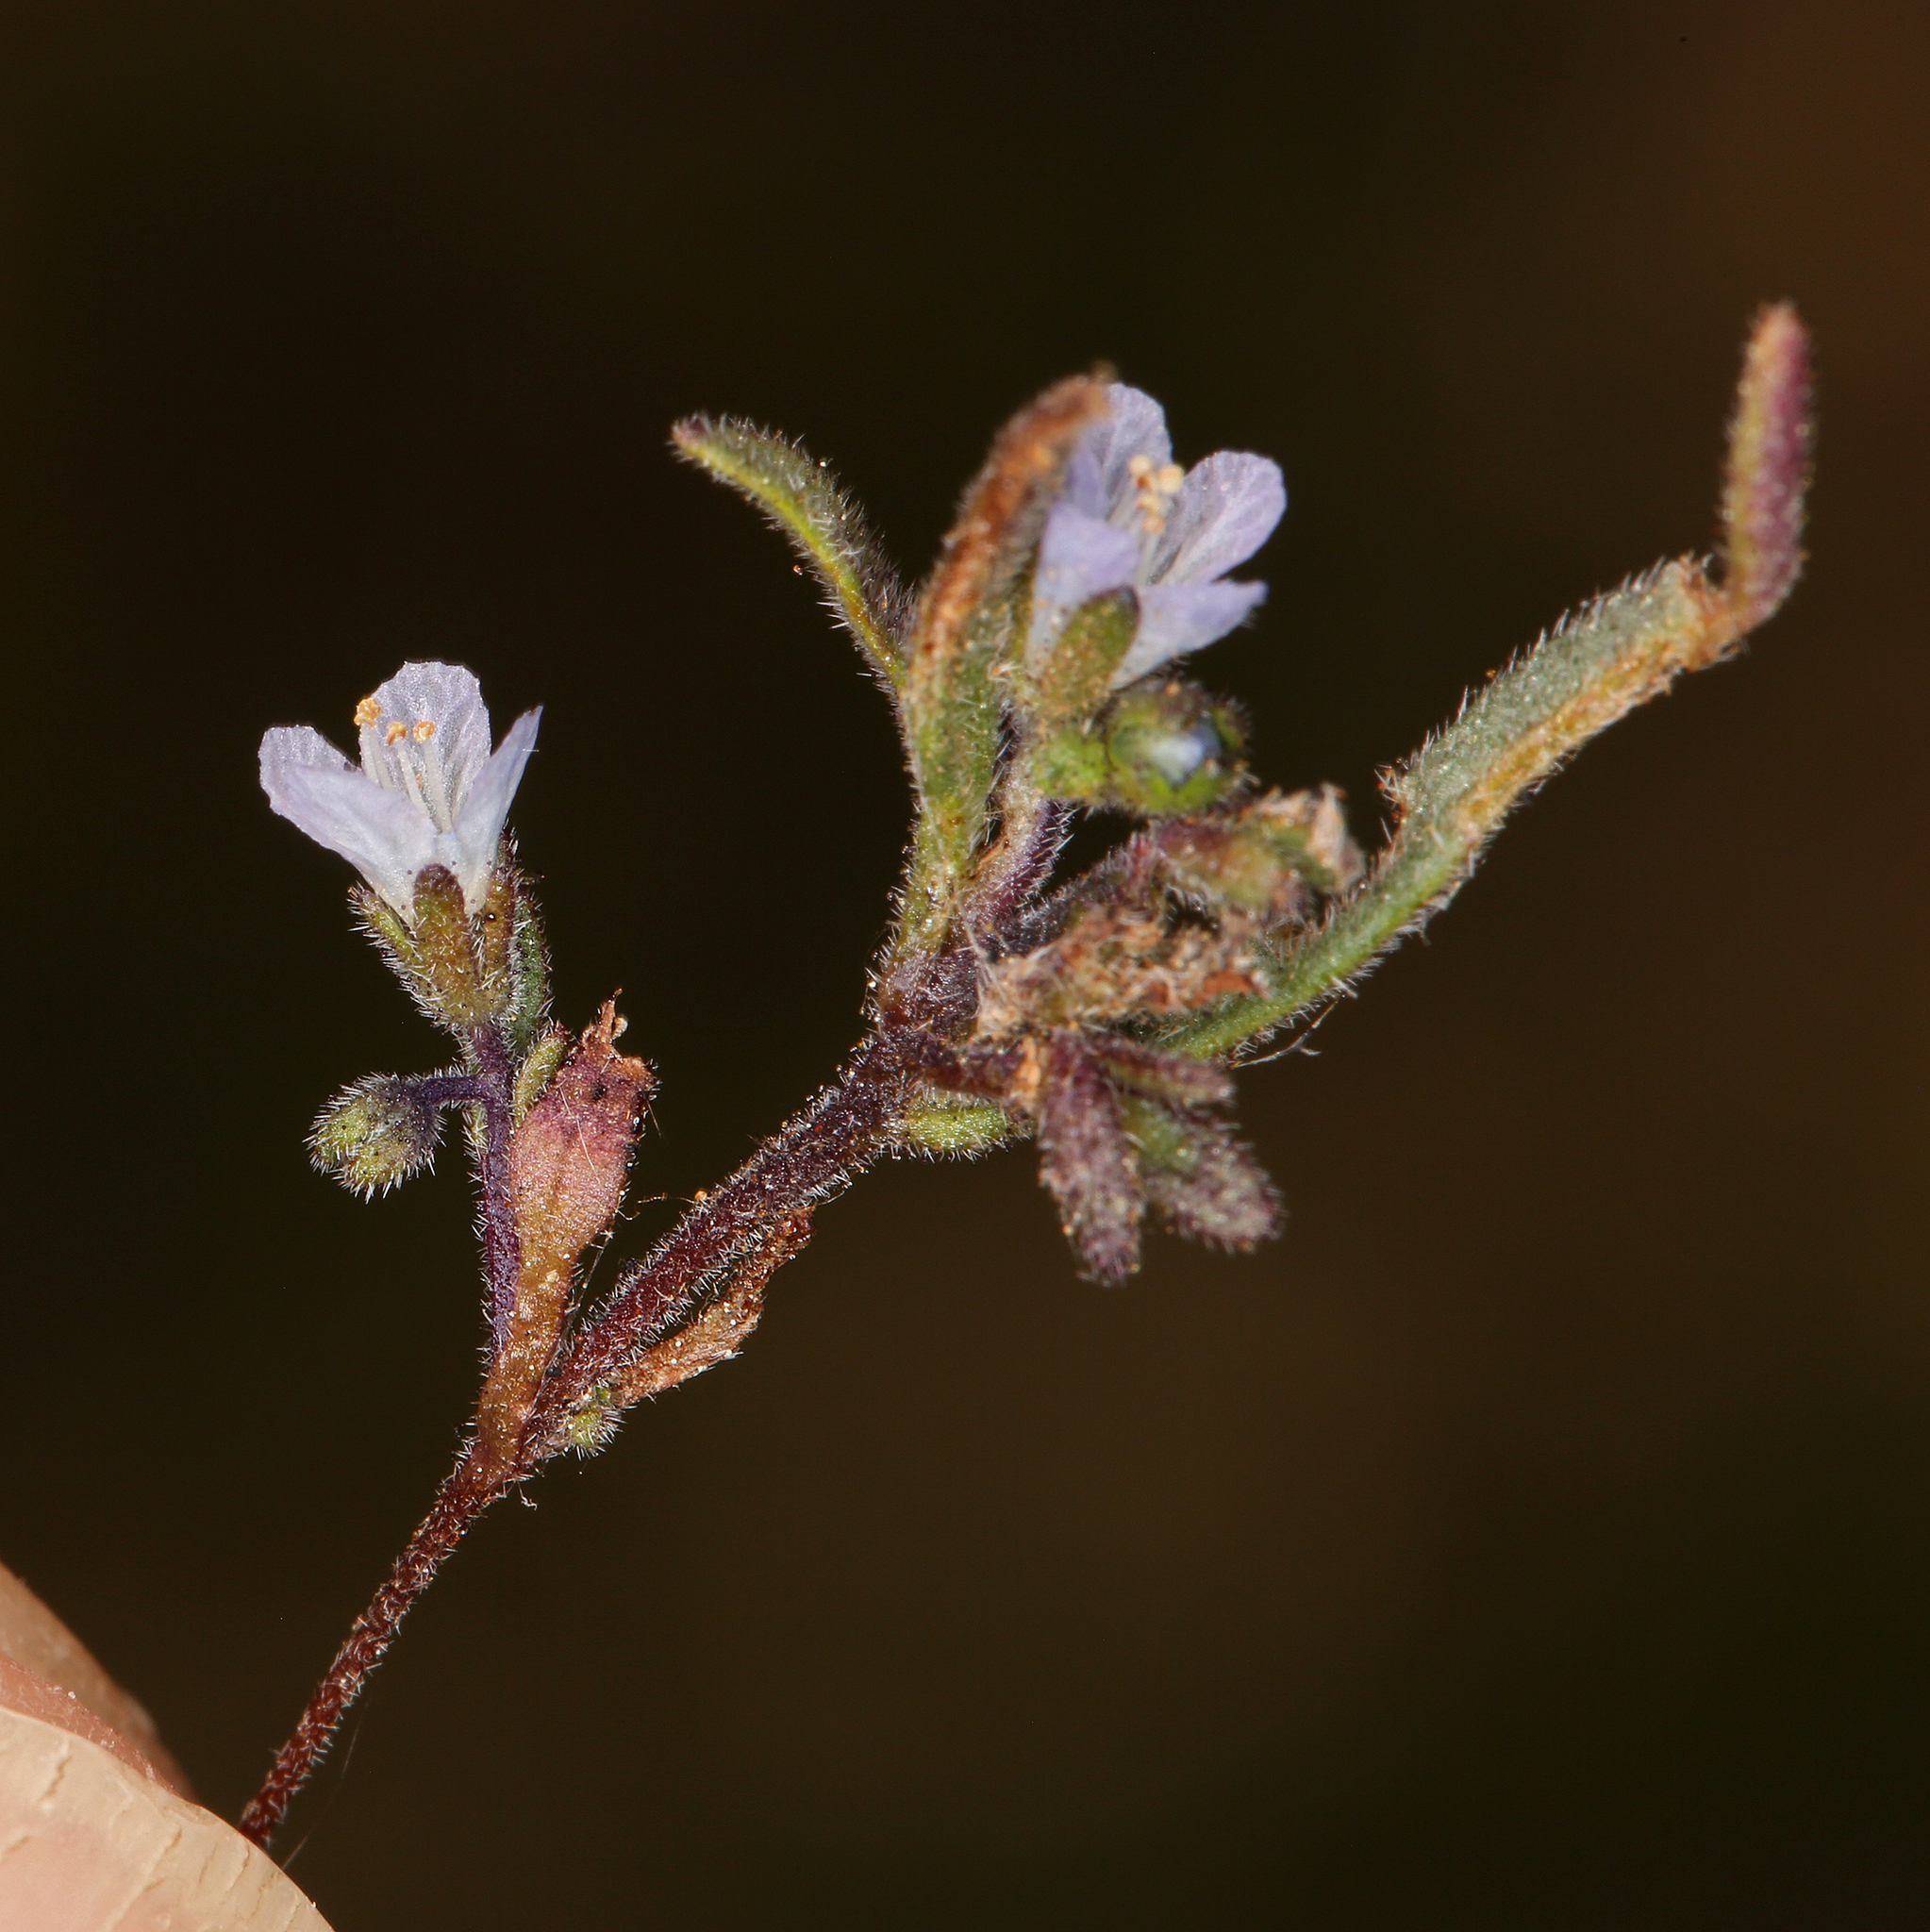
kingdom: Plantae
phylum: Tracheophyta
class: Magnoliopsida
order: Boraginales
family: Hydrophyllaceae
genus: Phacelia
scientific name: Phacelia leonis
